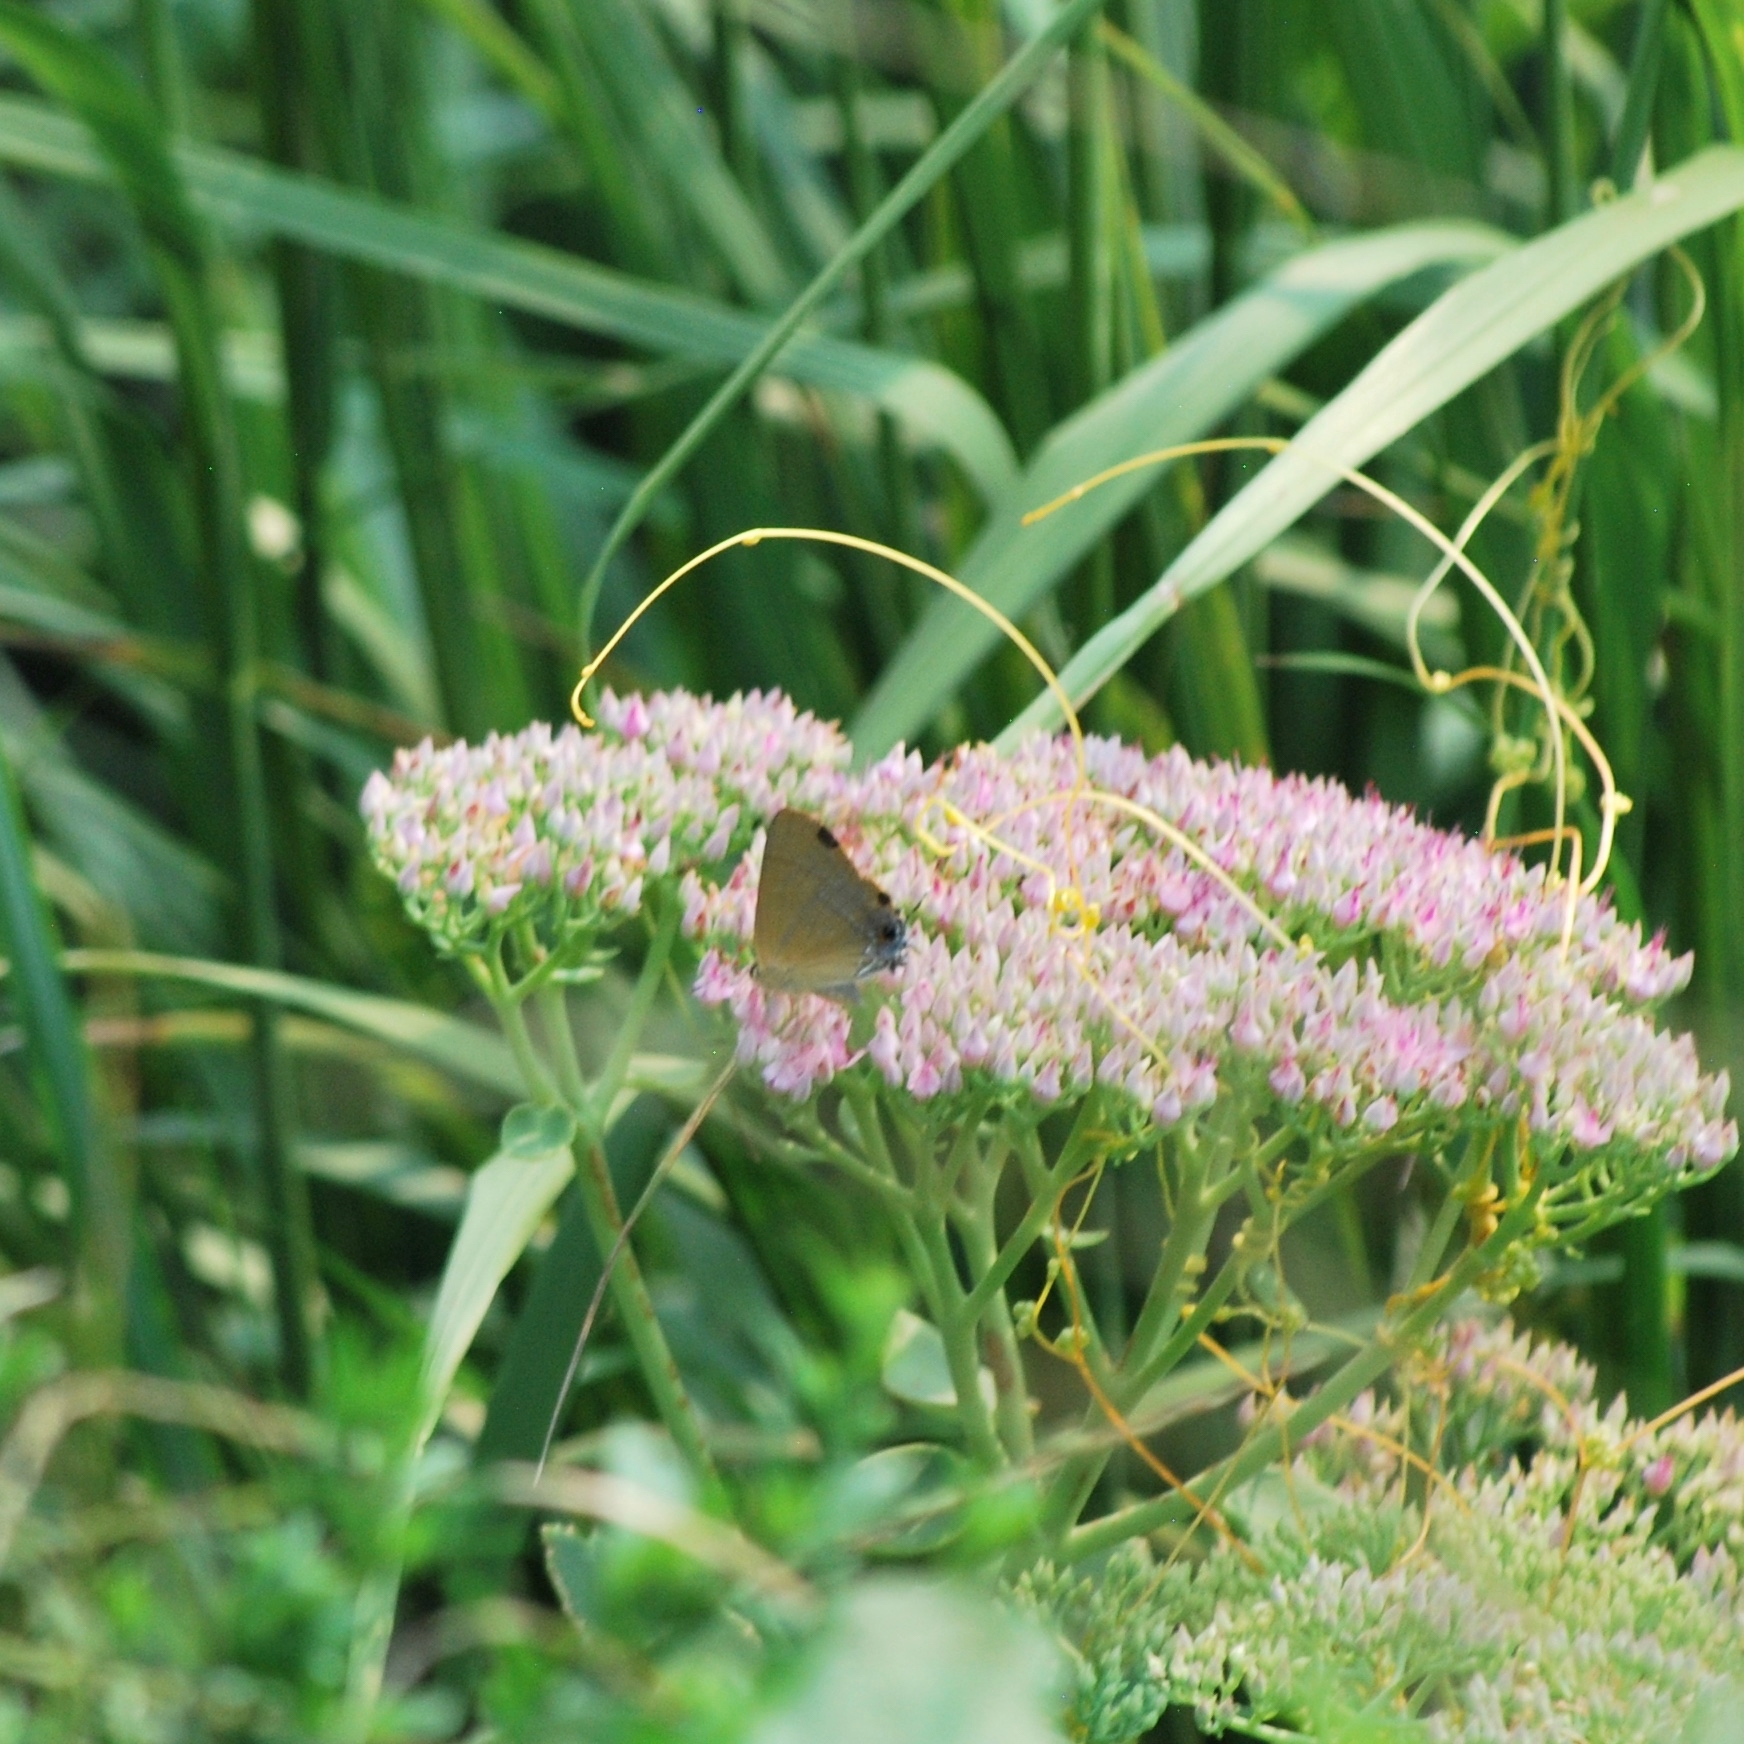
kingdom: Animalia
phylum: Arthropoda
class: Insecta
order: Lepidoptera
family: Lycaenidae
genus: Rapala
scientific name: Rapala nissa
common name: Common flash
